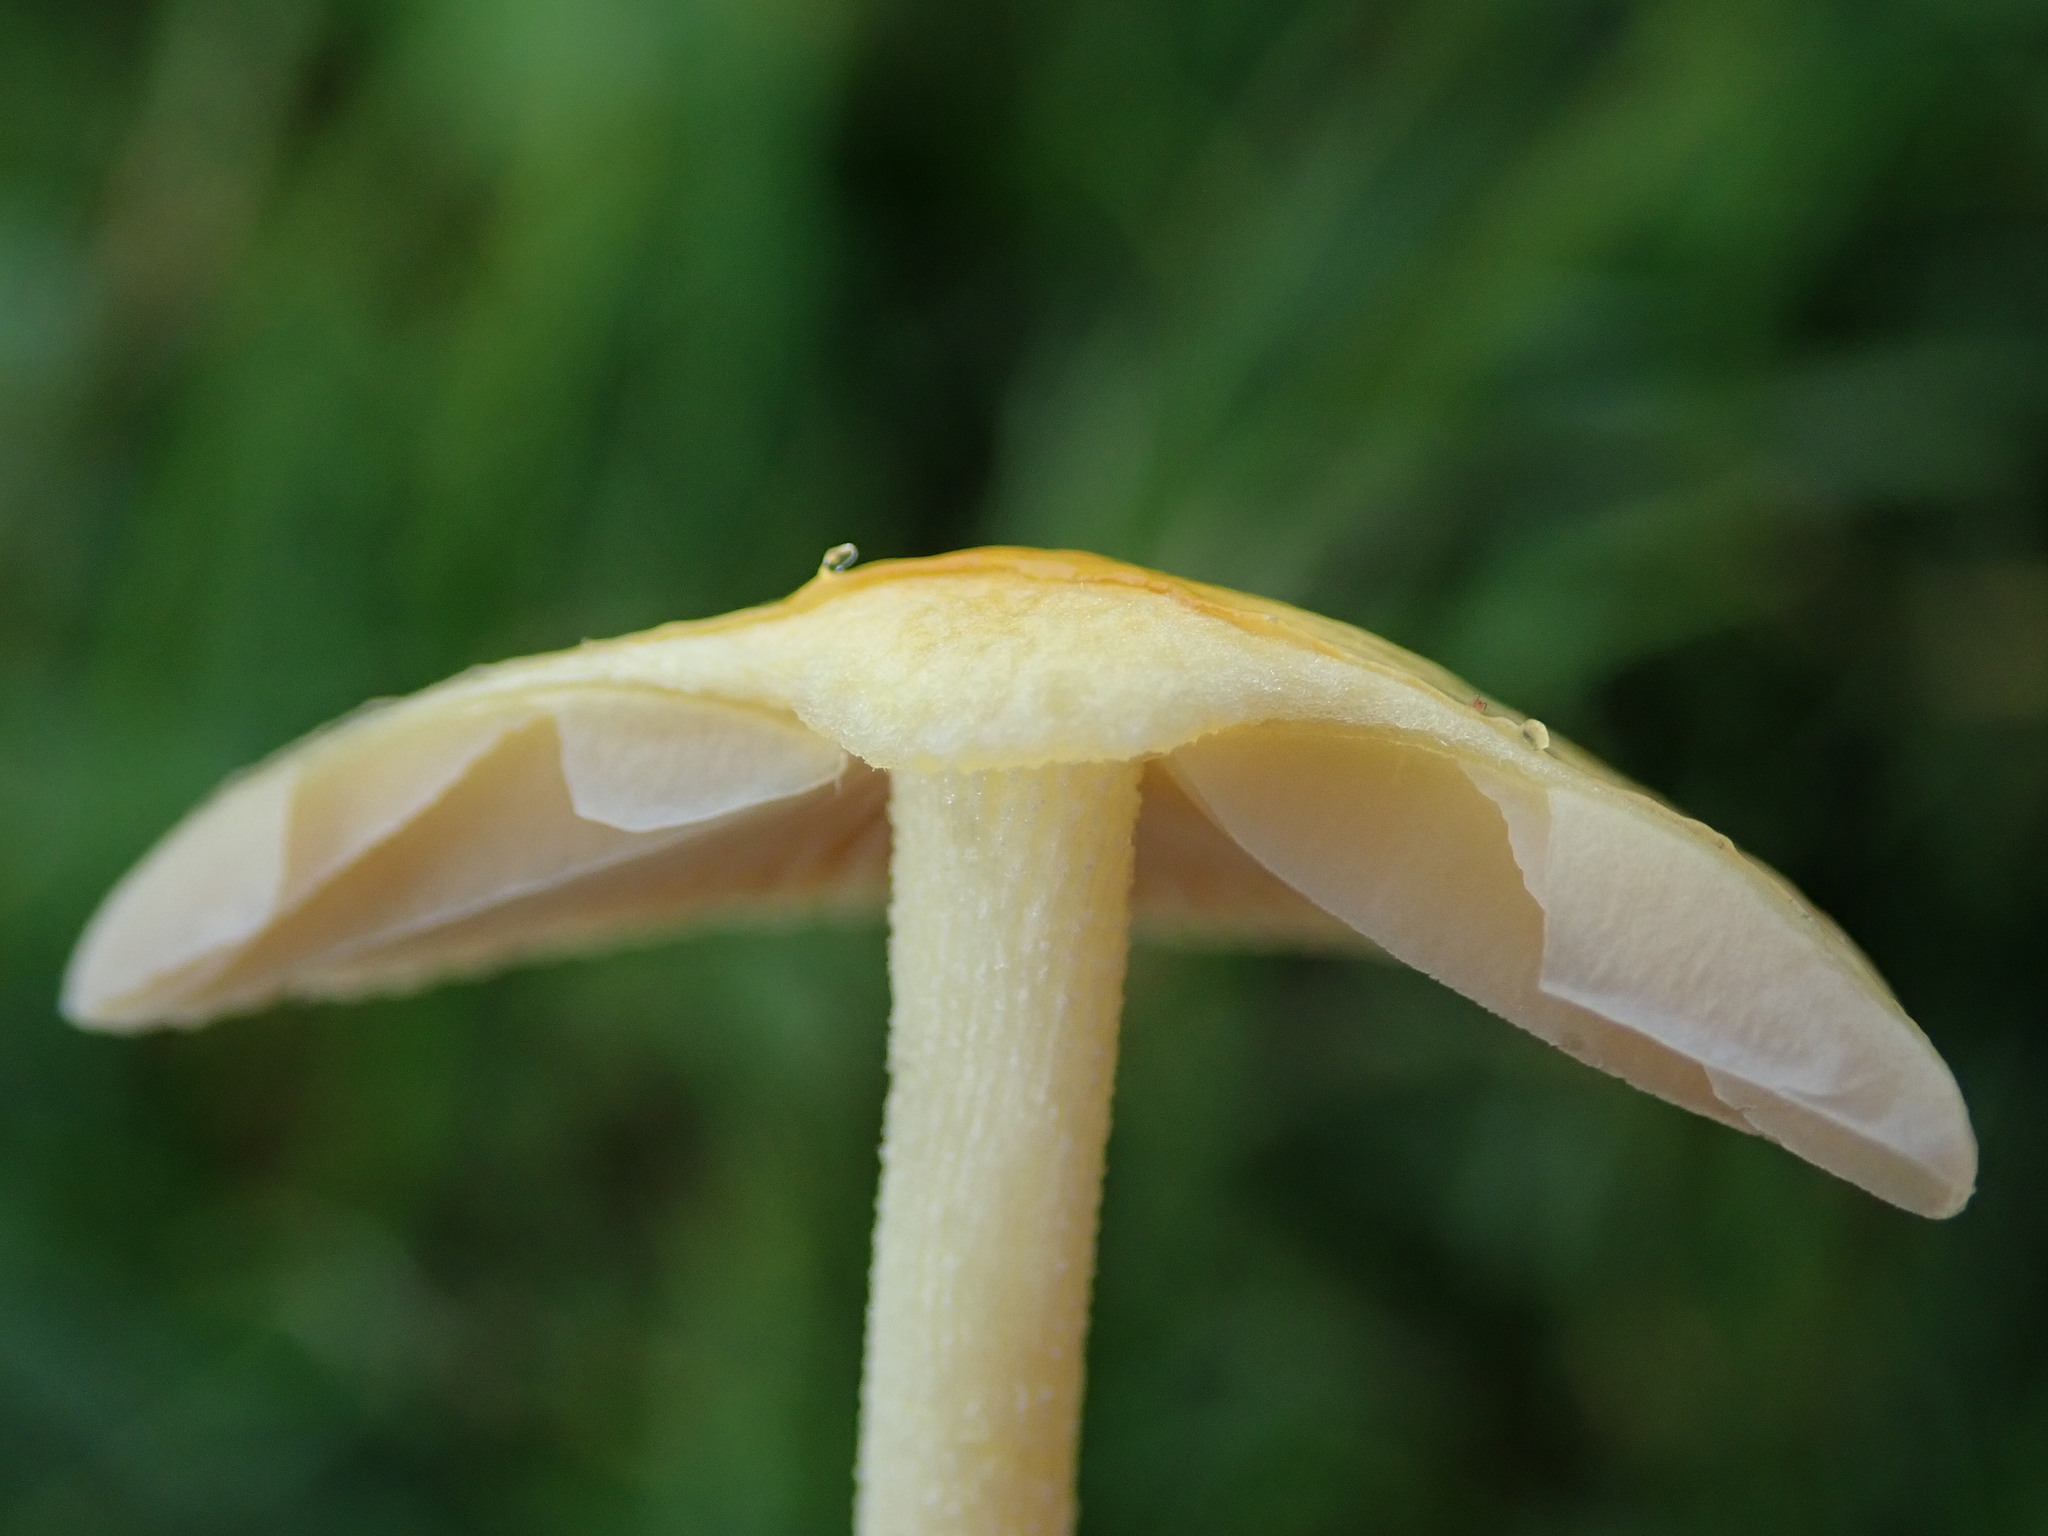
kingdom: Fungi
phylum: Basidiomycota
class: Agaricomycetes
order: Agaricales
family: Bolbitiaceae
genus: Bolbitius
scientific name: Bolbitius titubans
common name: Yellow fieldcap
